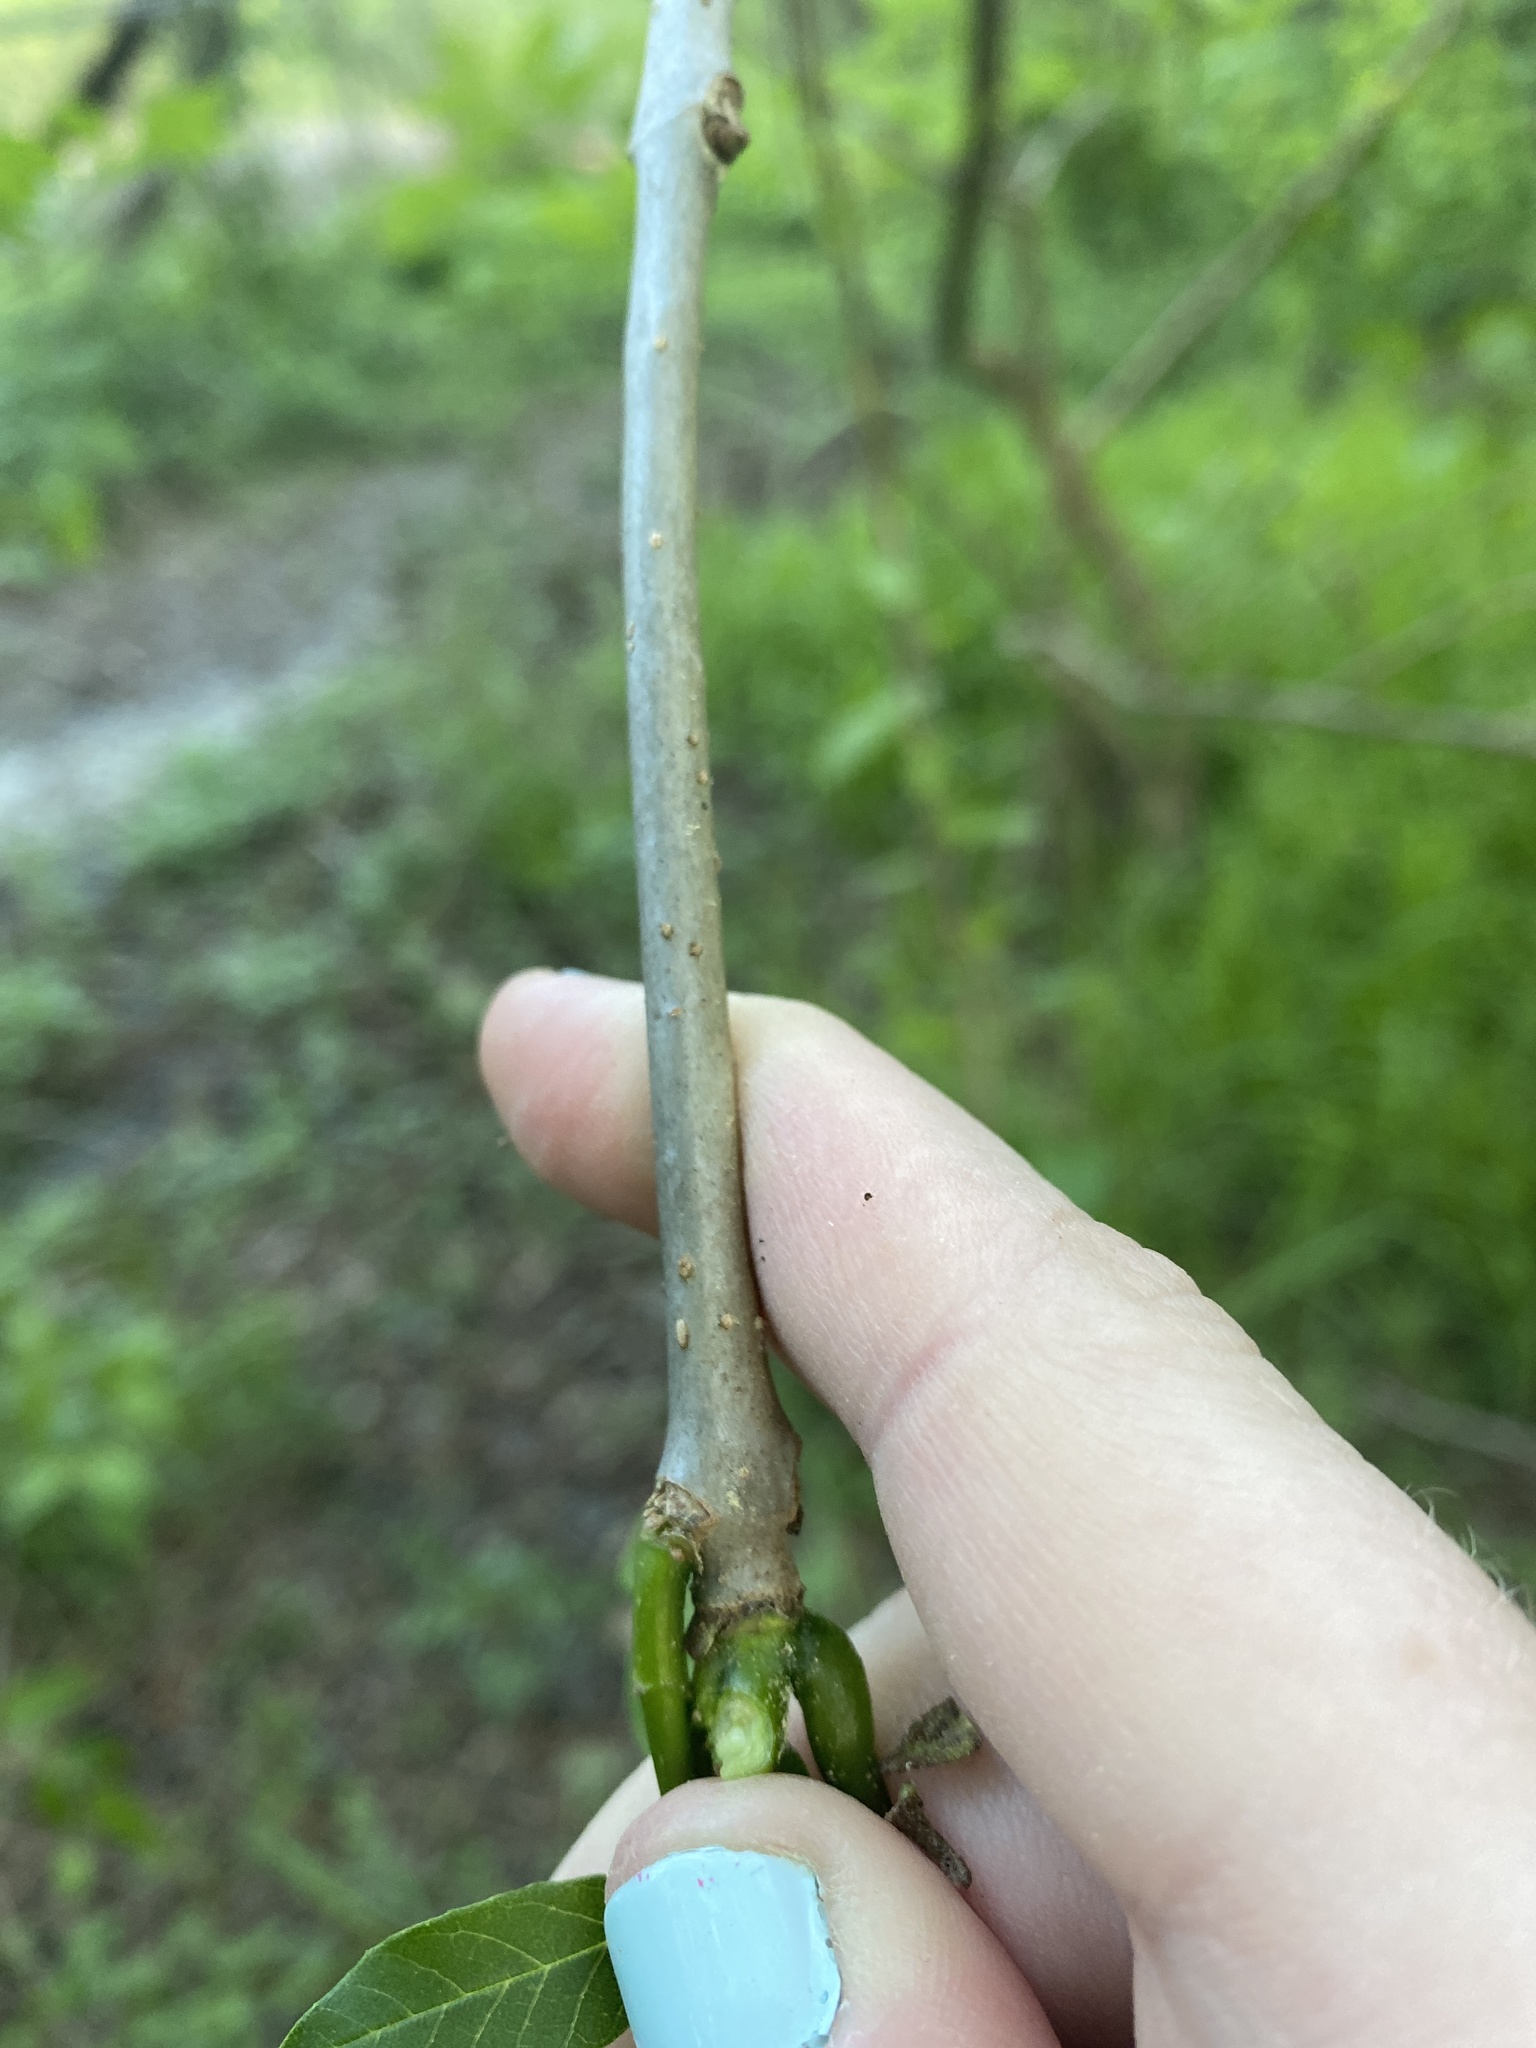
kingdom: Plantae
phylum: Tracheophyta
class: Magnoliopsida
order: Lamiales
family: Oleaceae
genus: Fraxinus
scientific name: Fraxinus pennsylvanica
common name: Green ash
